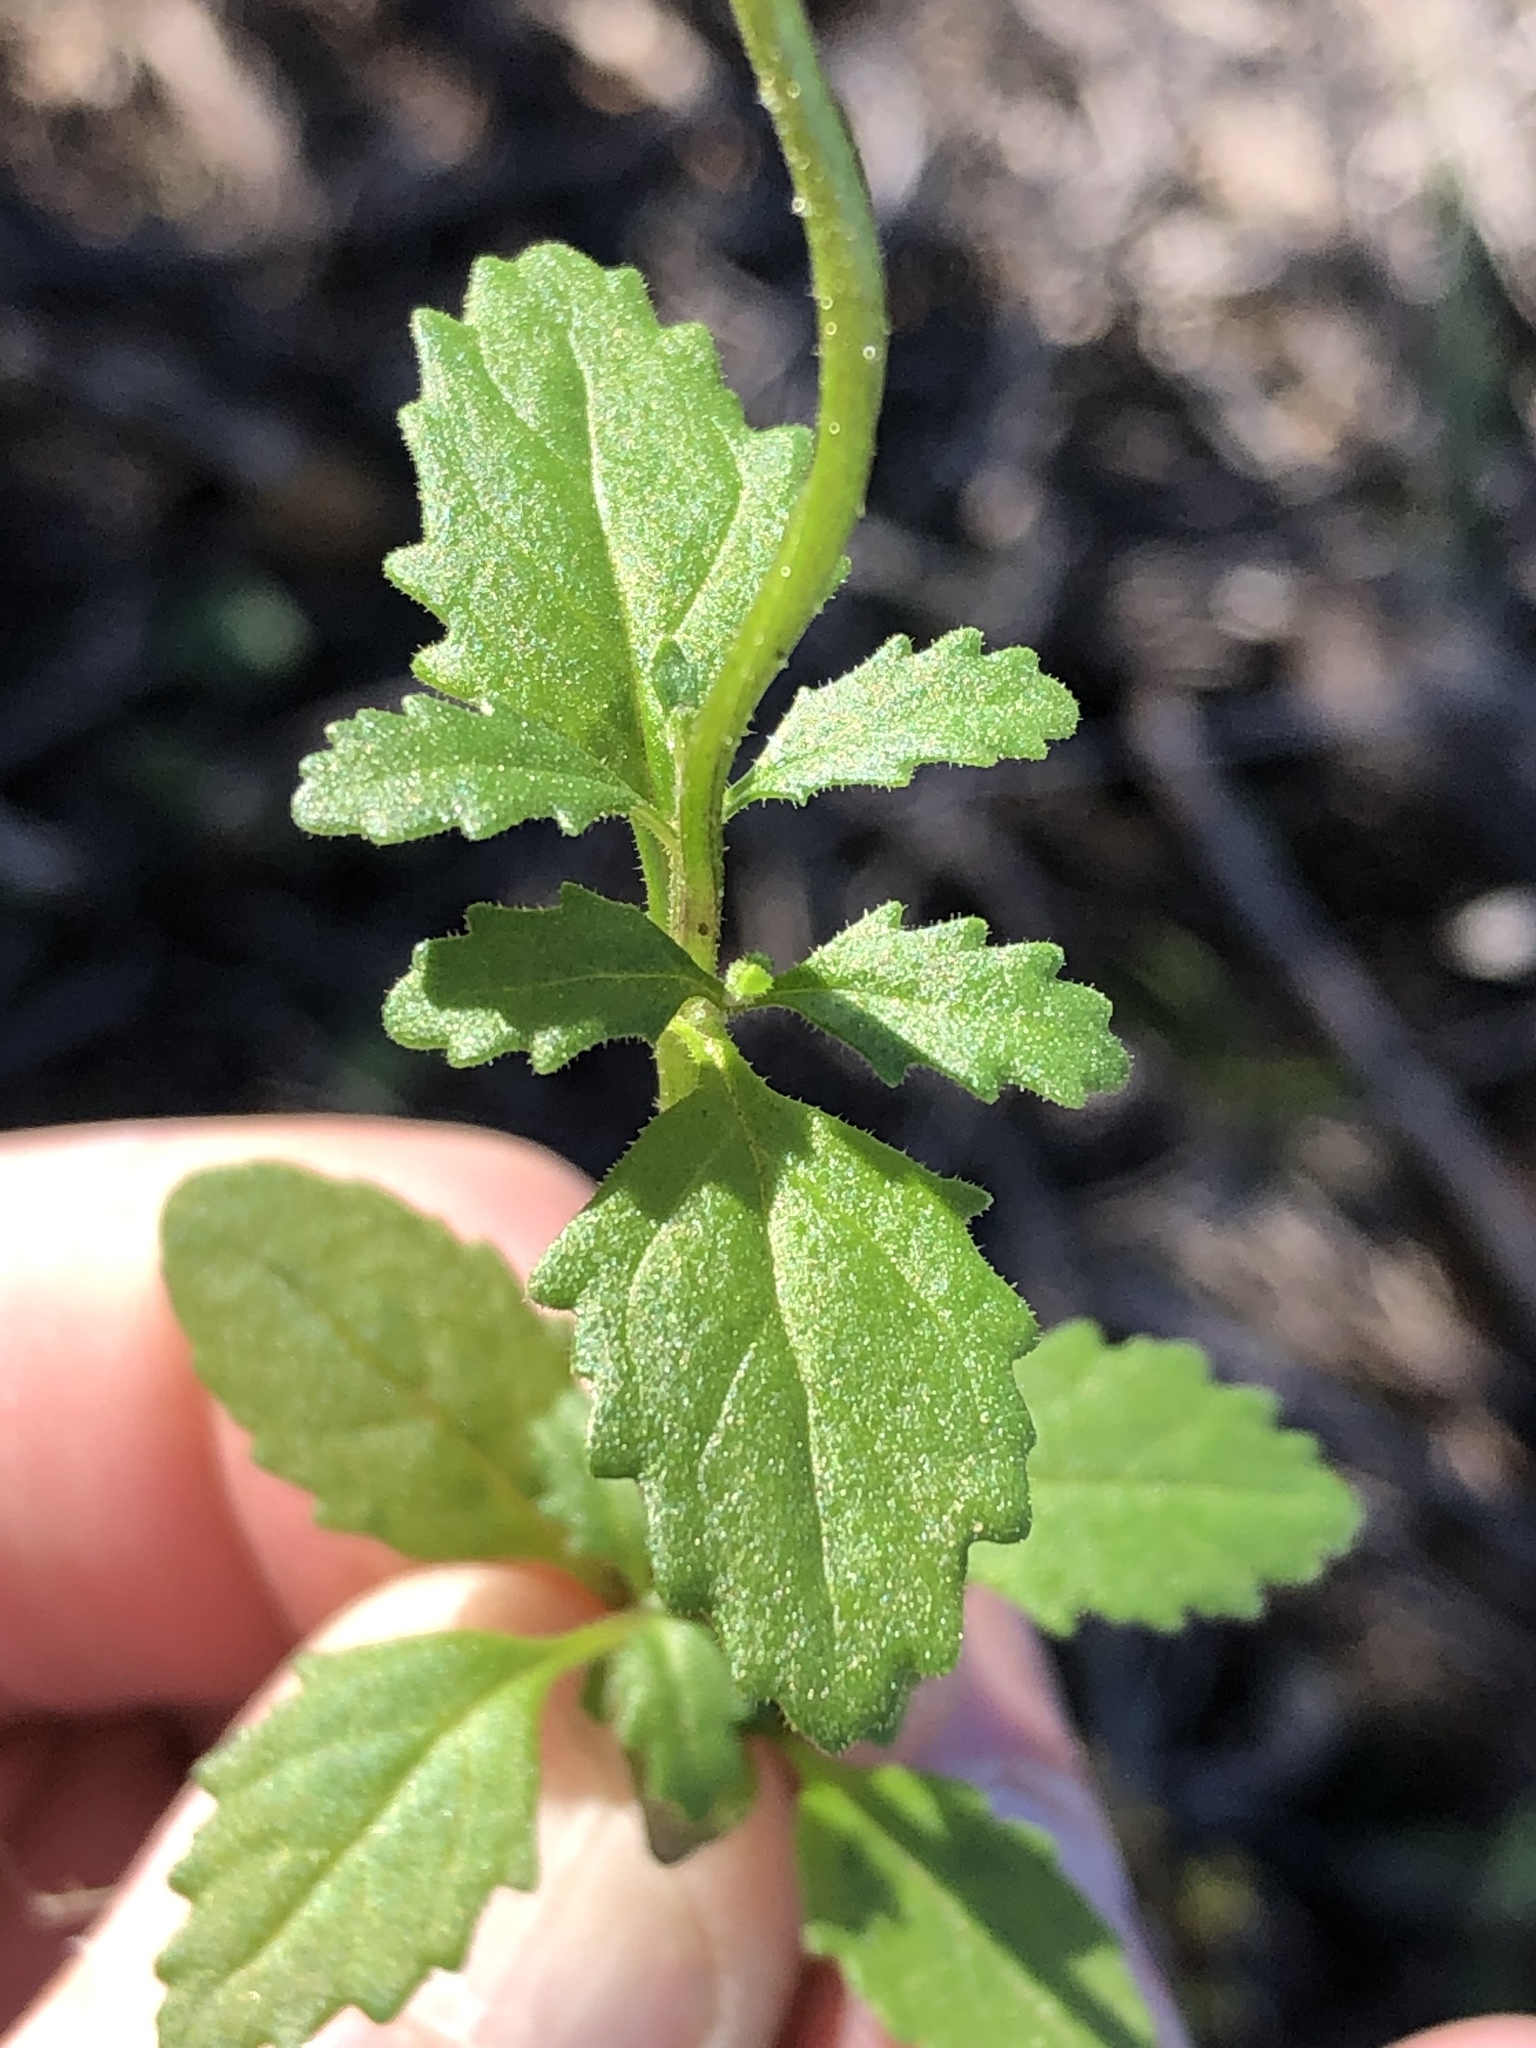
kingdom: Plantae
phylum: Tracheophyta
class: Magnoliopsida
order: Lamiales
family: Scrophulariaceae
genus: Lyperia
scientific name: Lyperia violacea
